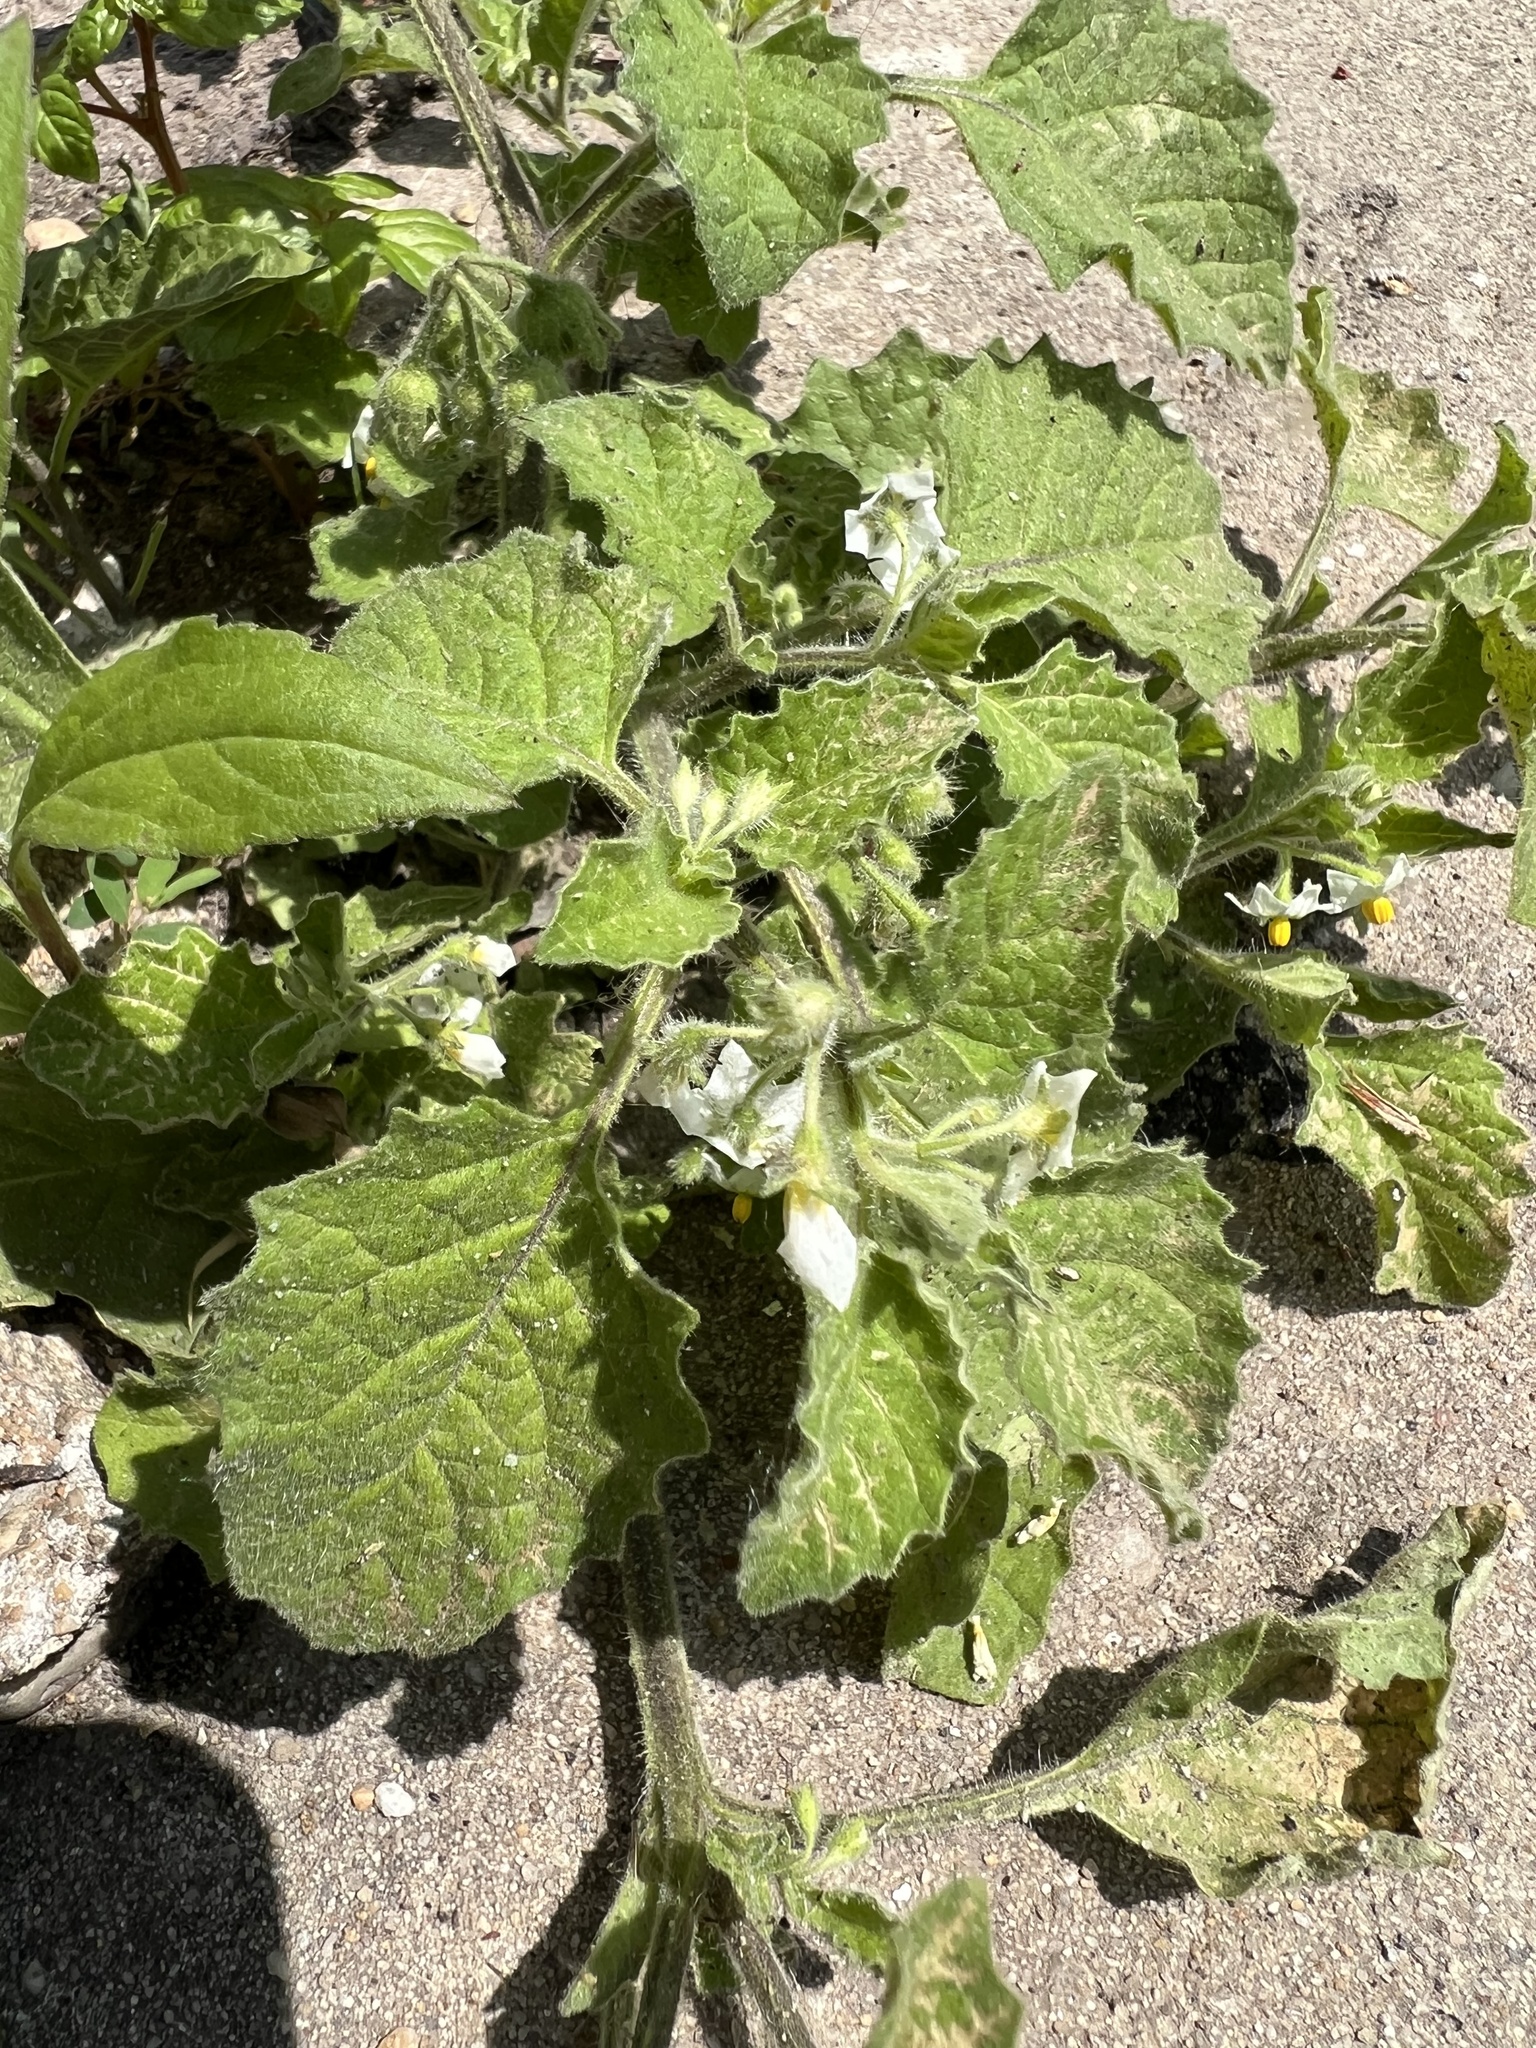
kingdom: Plantae
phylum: Tracheophyta
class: Magnoliopsida
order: Solanales
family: Solanaceae
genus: Solanum
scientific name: Solanum sarrachoides
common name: Leafy-fruited nightshade
